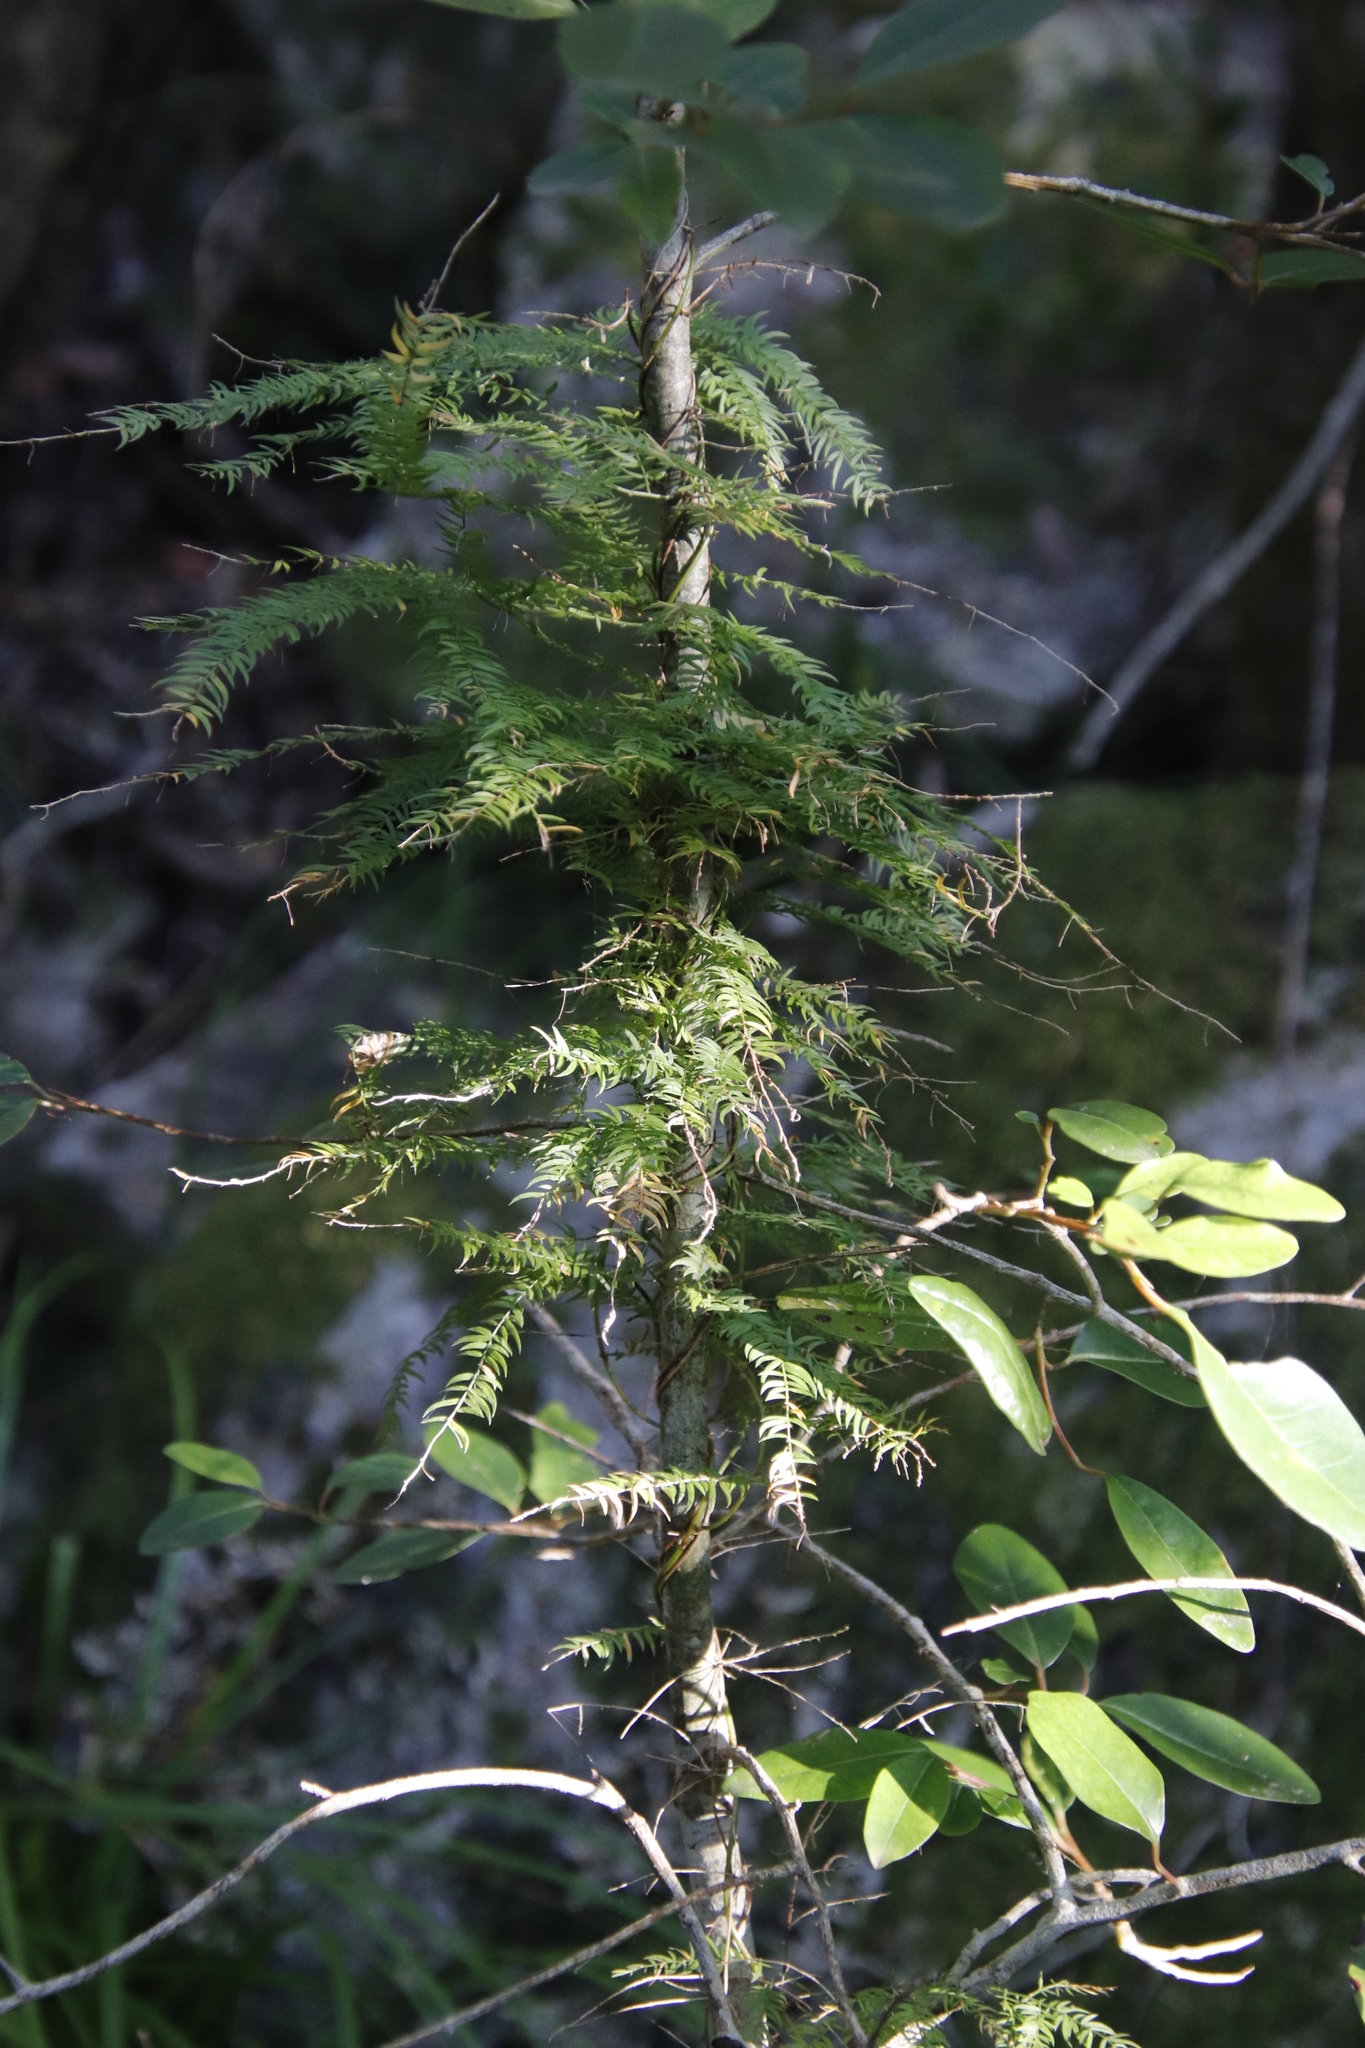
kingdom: Plantae
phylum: Tracheophyta
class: Liliopsida
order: Asparagales
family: Asparagaceae
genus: Asparagus
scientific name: Asparagus scandens
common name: Asparagus-fern
